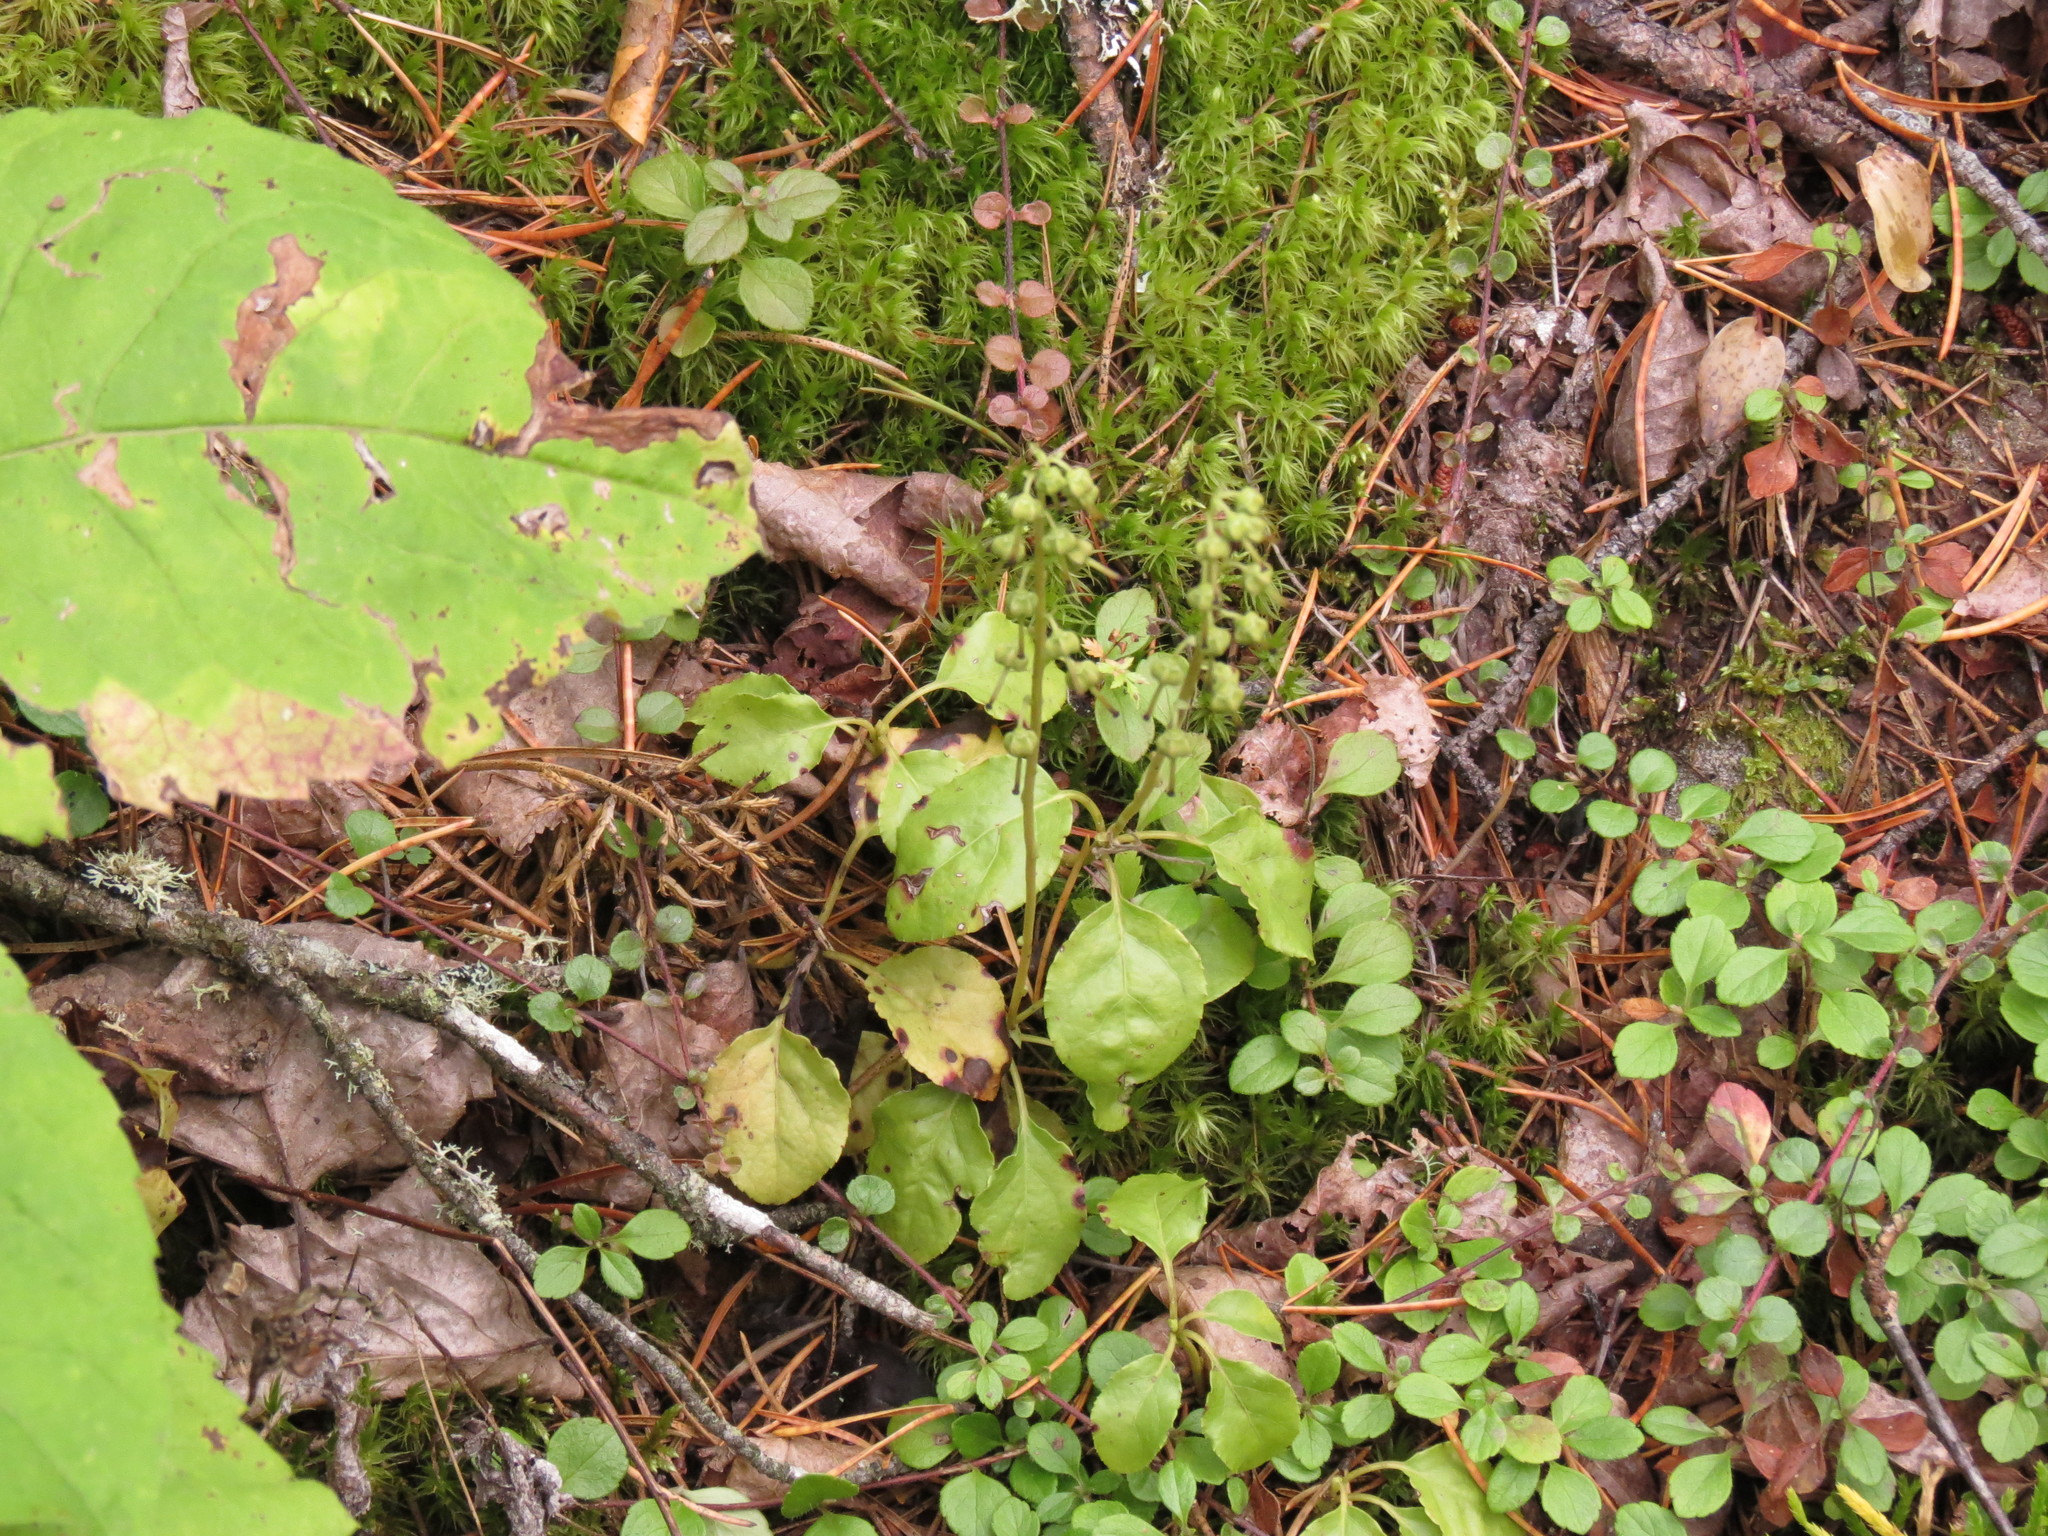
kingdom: Plantae
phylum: Tracheophyta
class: Magnoliopsida
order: Ericales
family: Ericaceae
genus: Orthilia
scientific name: Orthilia secunda
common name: One-sided orthilia
